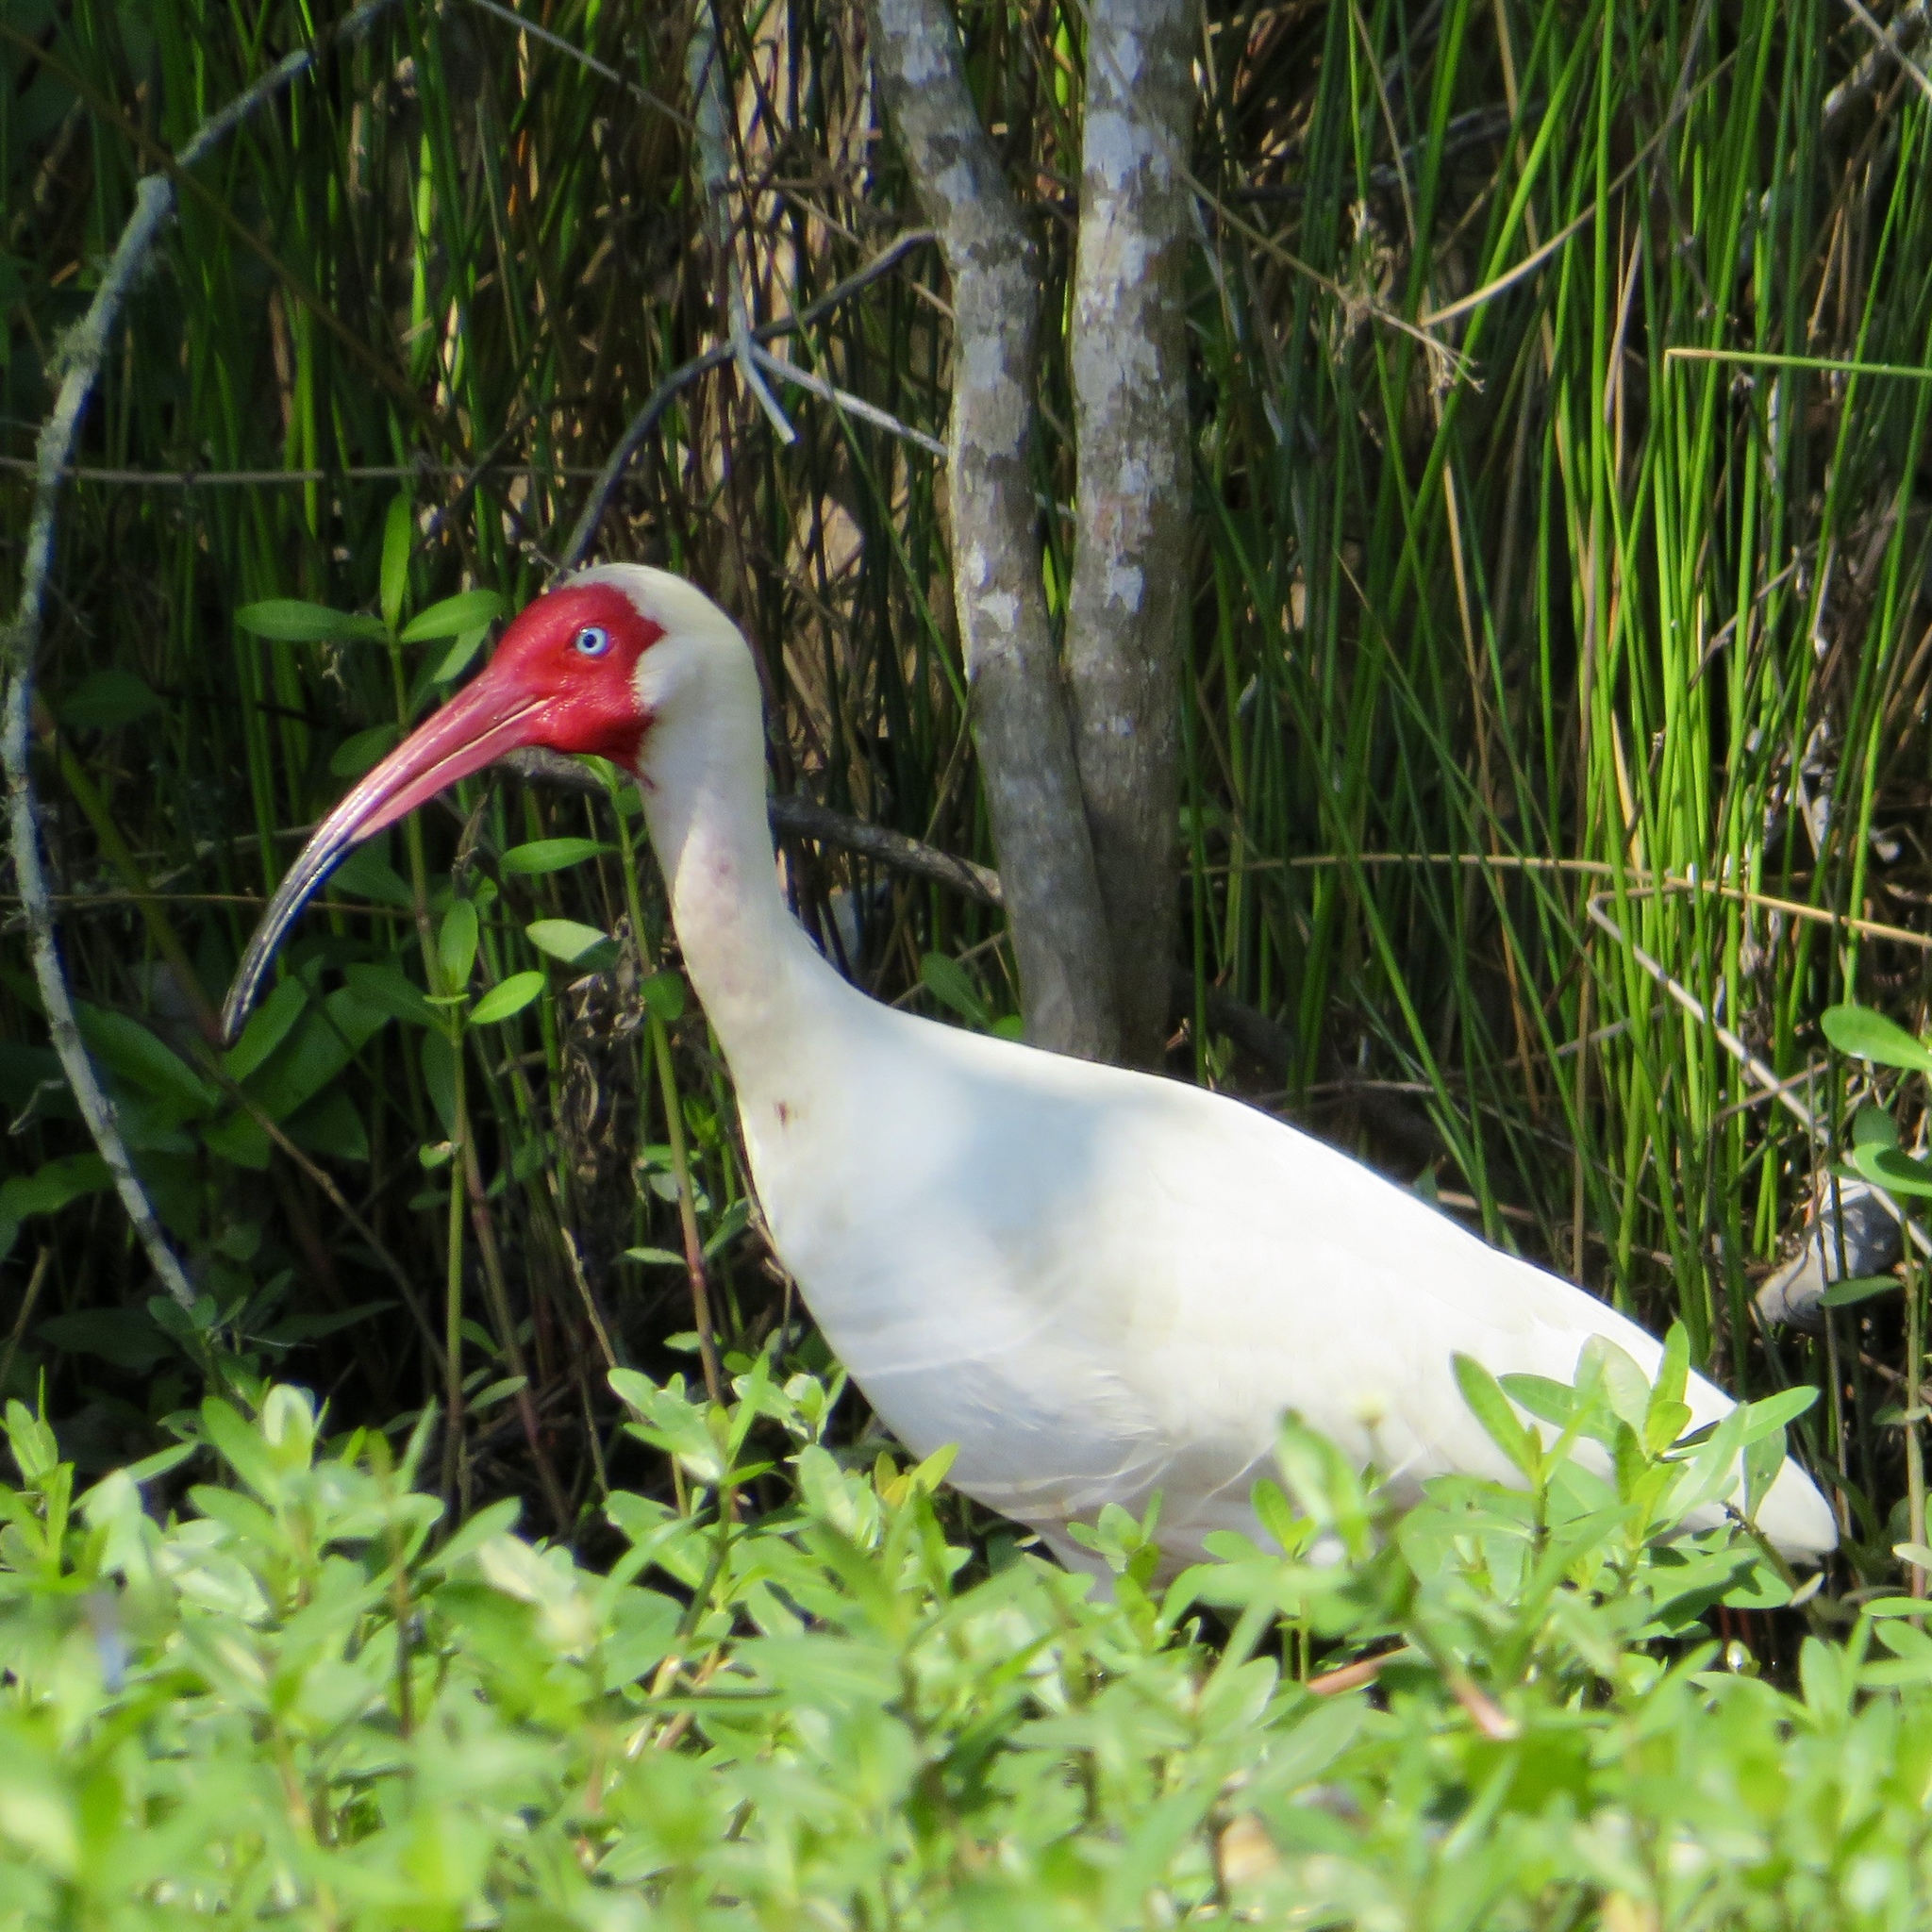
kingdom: Animalia
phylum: Chordata
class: Aves
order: Pelecaniformes
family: Threskiornithidae
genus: Eudocimus
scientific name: Eudocimus albus
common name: White ibis
